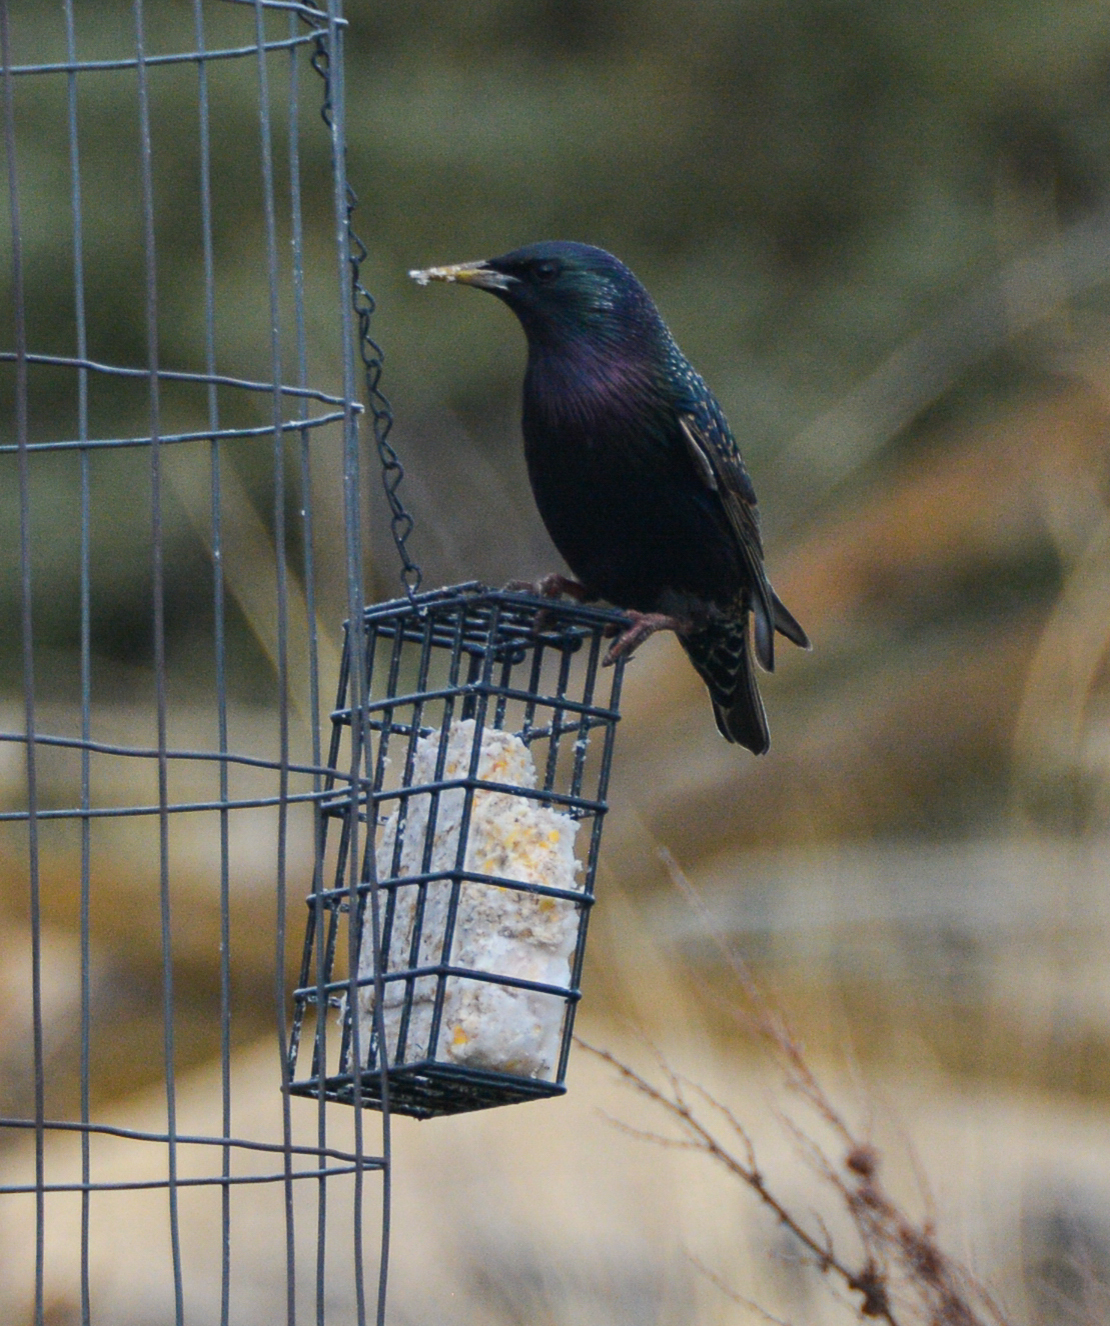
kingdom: Animalia
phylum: Chordata
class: Aves
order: Passeriformes
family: Sturnidae
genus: Sturnus
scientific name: Sturnus vulgaris
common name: Common starling
